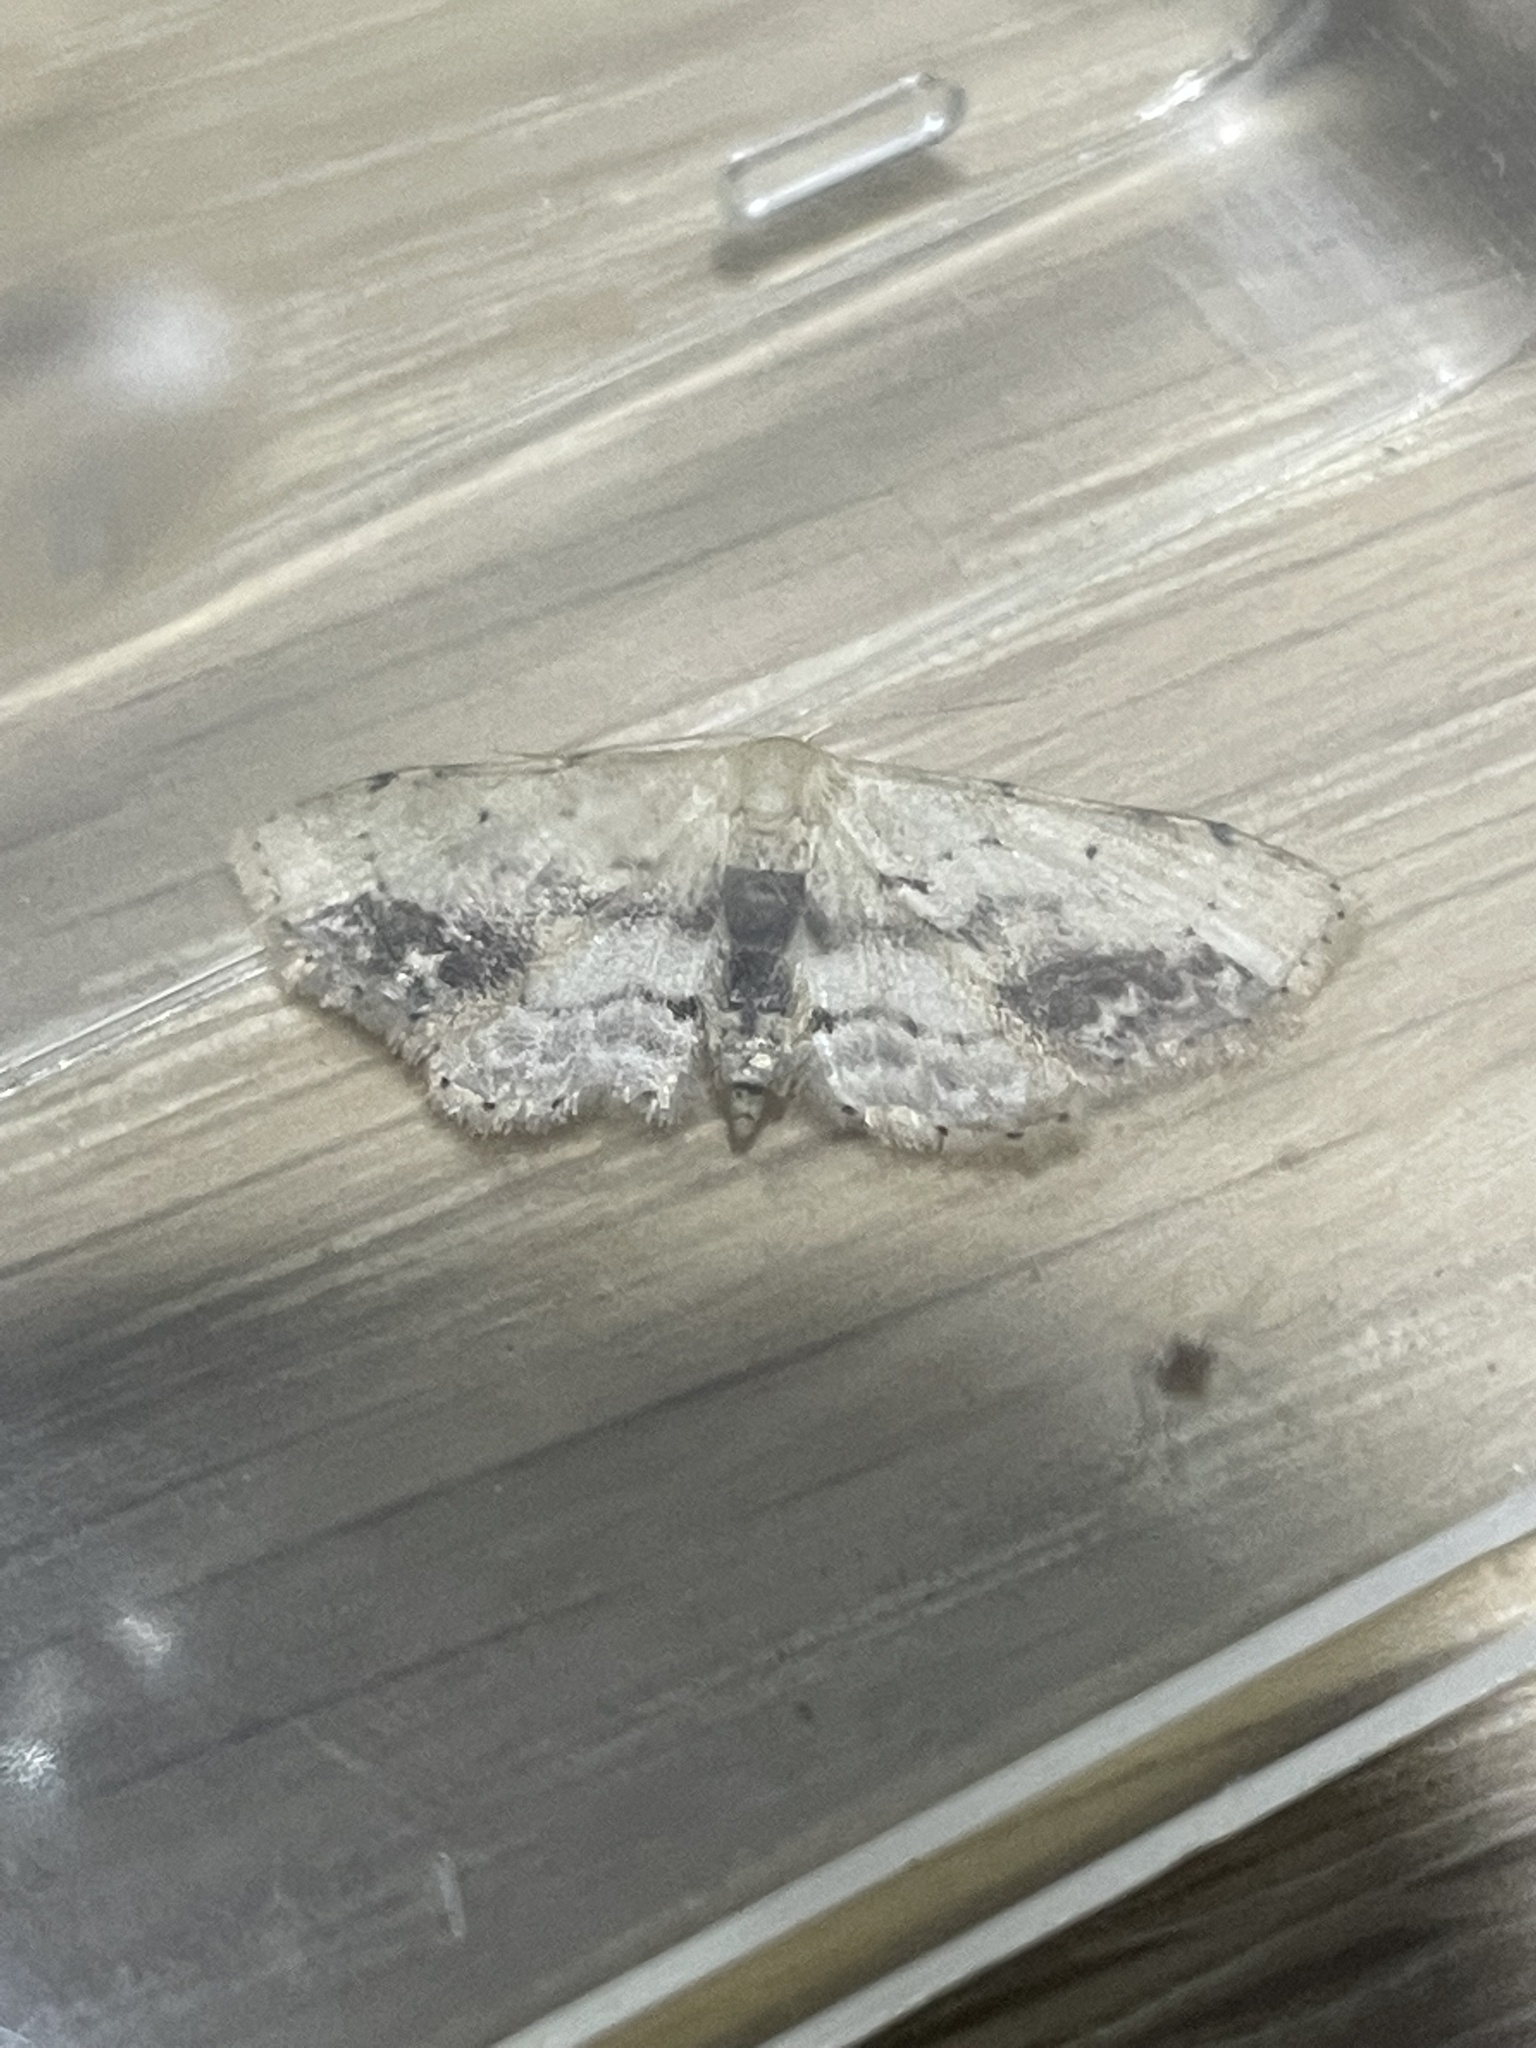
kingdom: Animalia
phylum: Arthropoda
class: Insecta
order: Lepidoptera
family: Geometridae
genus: Idaea
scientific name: Idaea dimidiata
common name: Single-dotted wave
